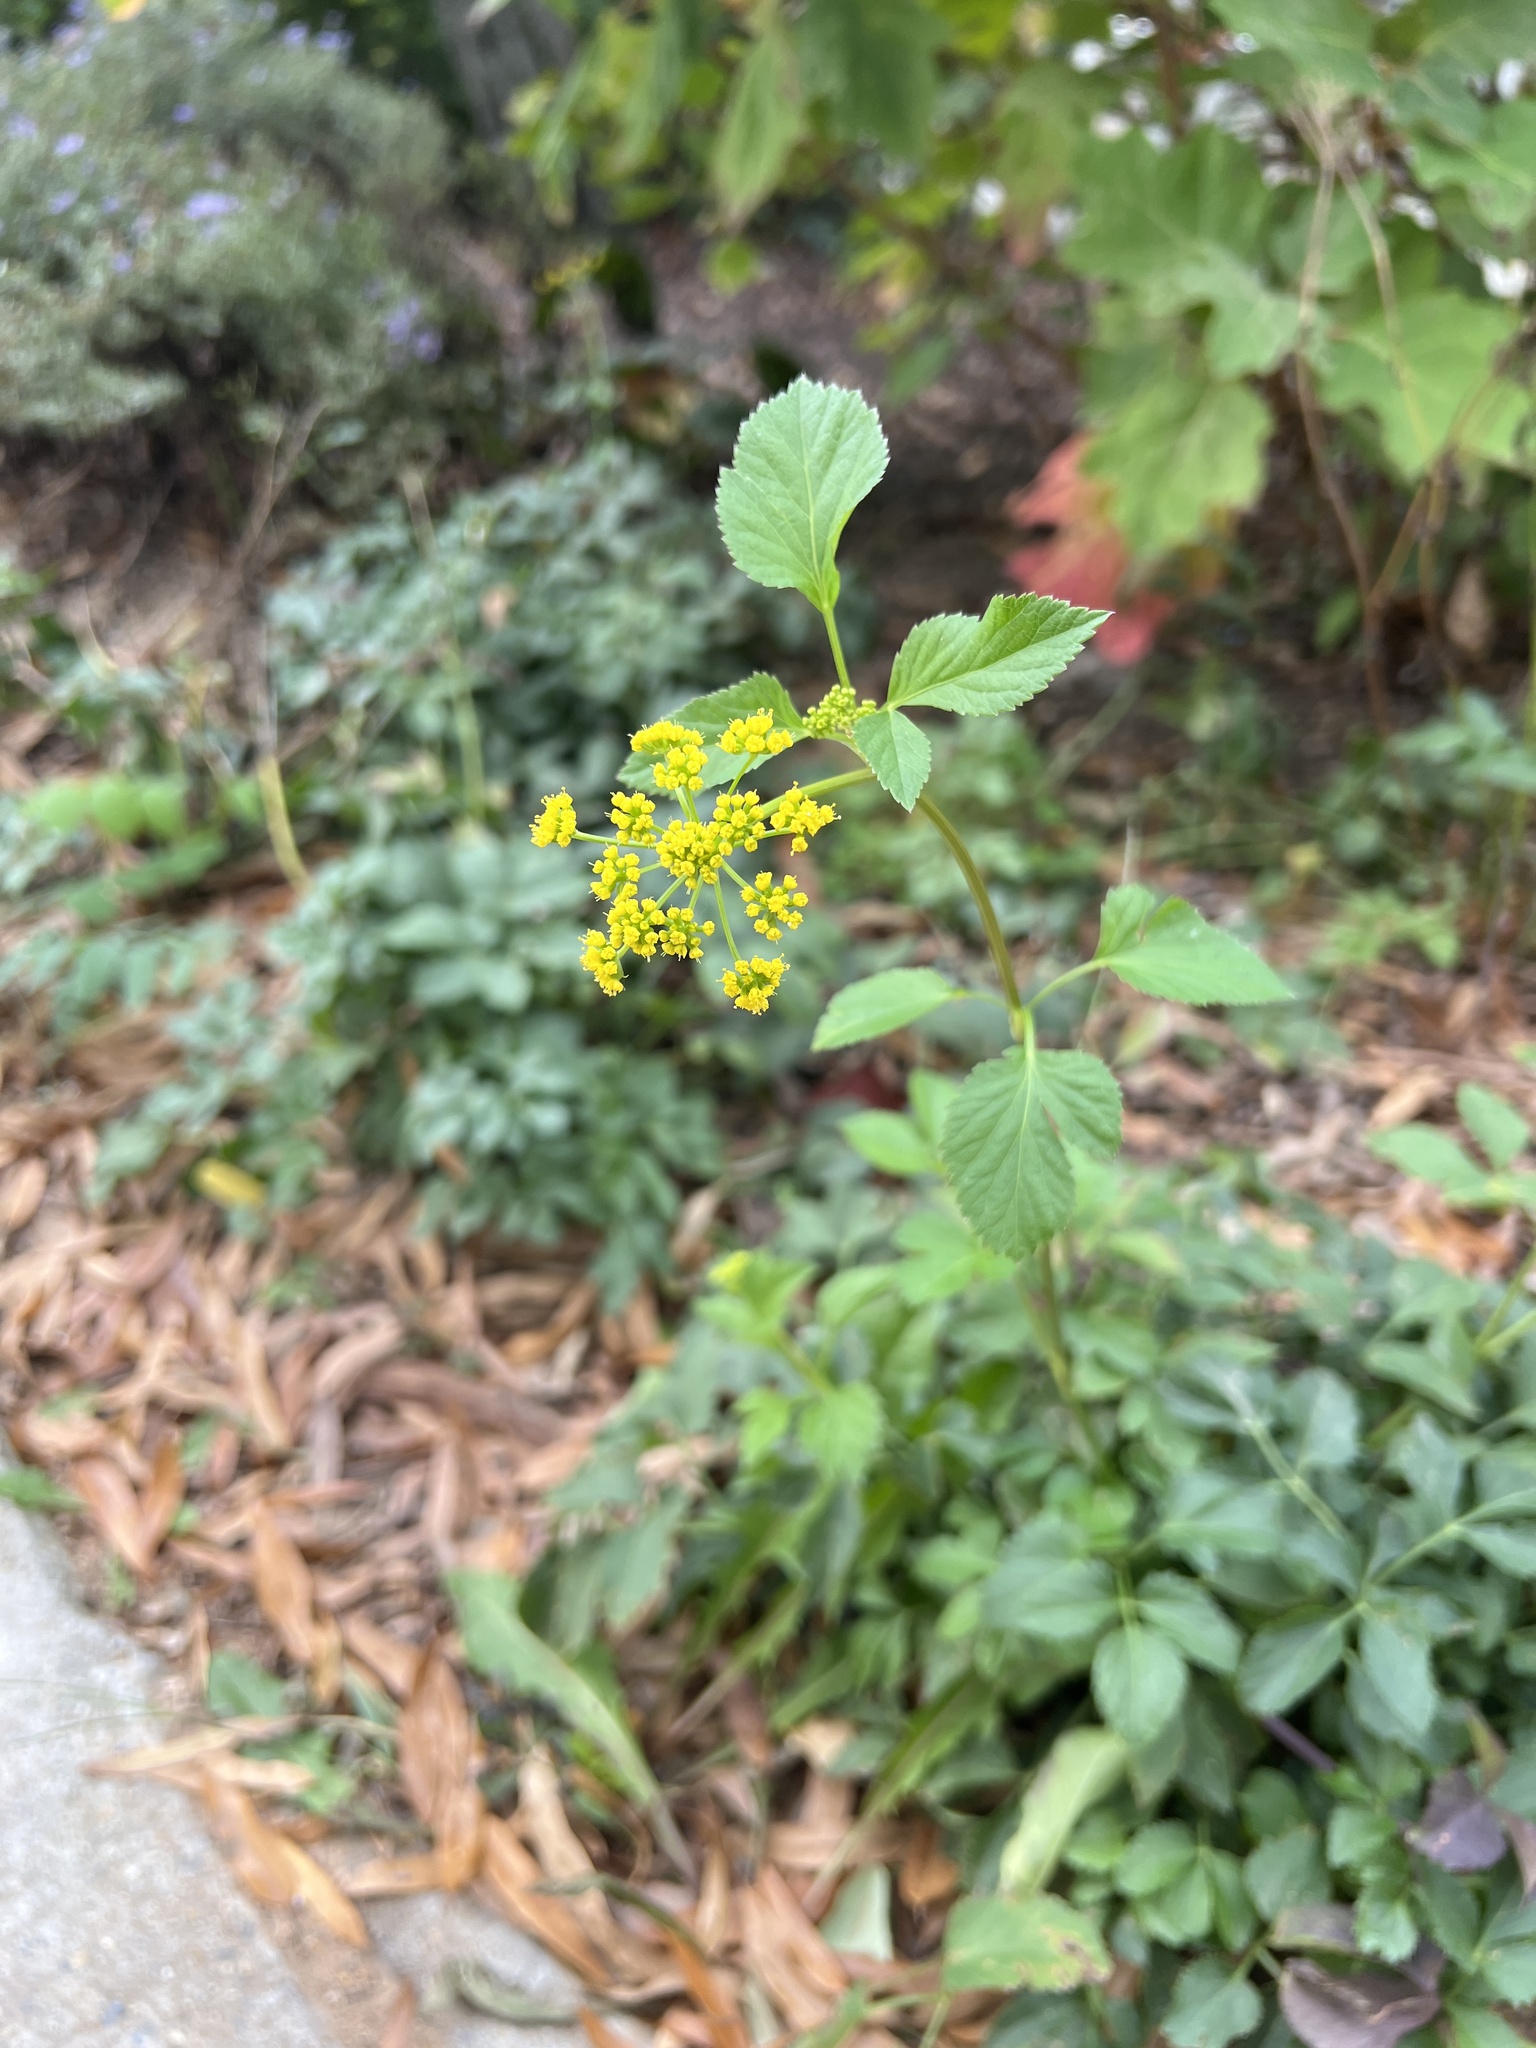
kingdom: Plantae
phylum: Tracheophyta
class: Magnoliopsida
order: Apiales
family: Apiaceae
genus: Zizia
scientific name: Zizia aurea
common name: Golden alexanders
